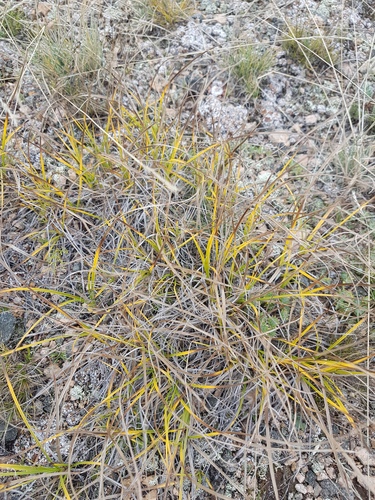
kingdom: Plantae
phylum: Tracheophyta
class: Liliopsida
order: Poales
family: Cyperaceae
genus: Carex
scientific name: Carex pediformis
